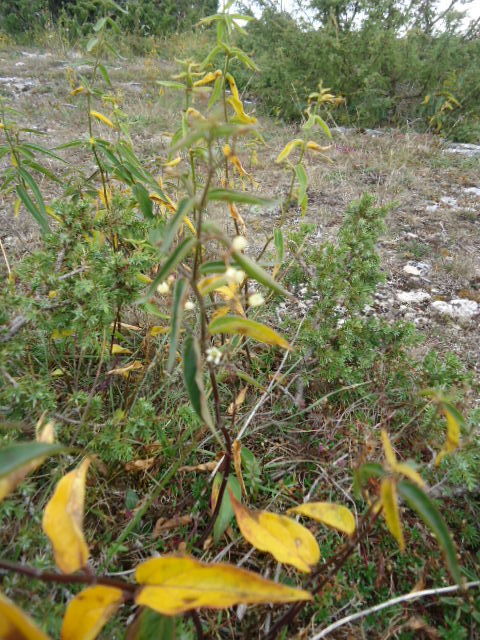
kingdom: Plantae
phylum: Tracheophyta
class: Magnoliopsida
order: Gentianales
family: Apocynaceae
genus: Vincetoxicum
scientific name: Vincetoxicum hirundinaria
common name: White swallowwort
